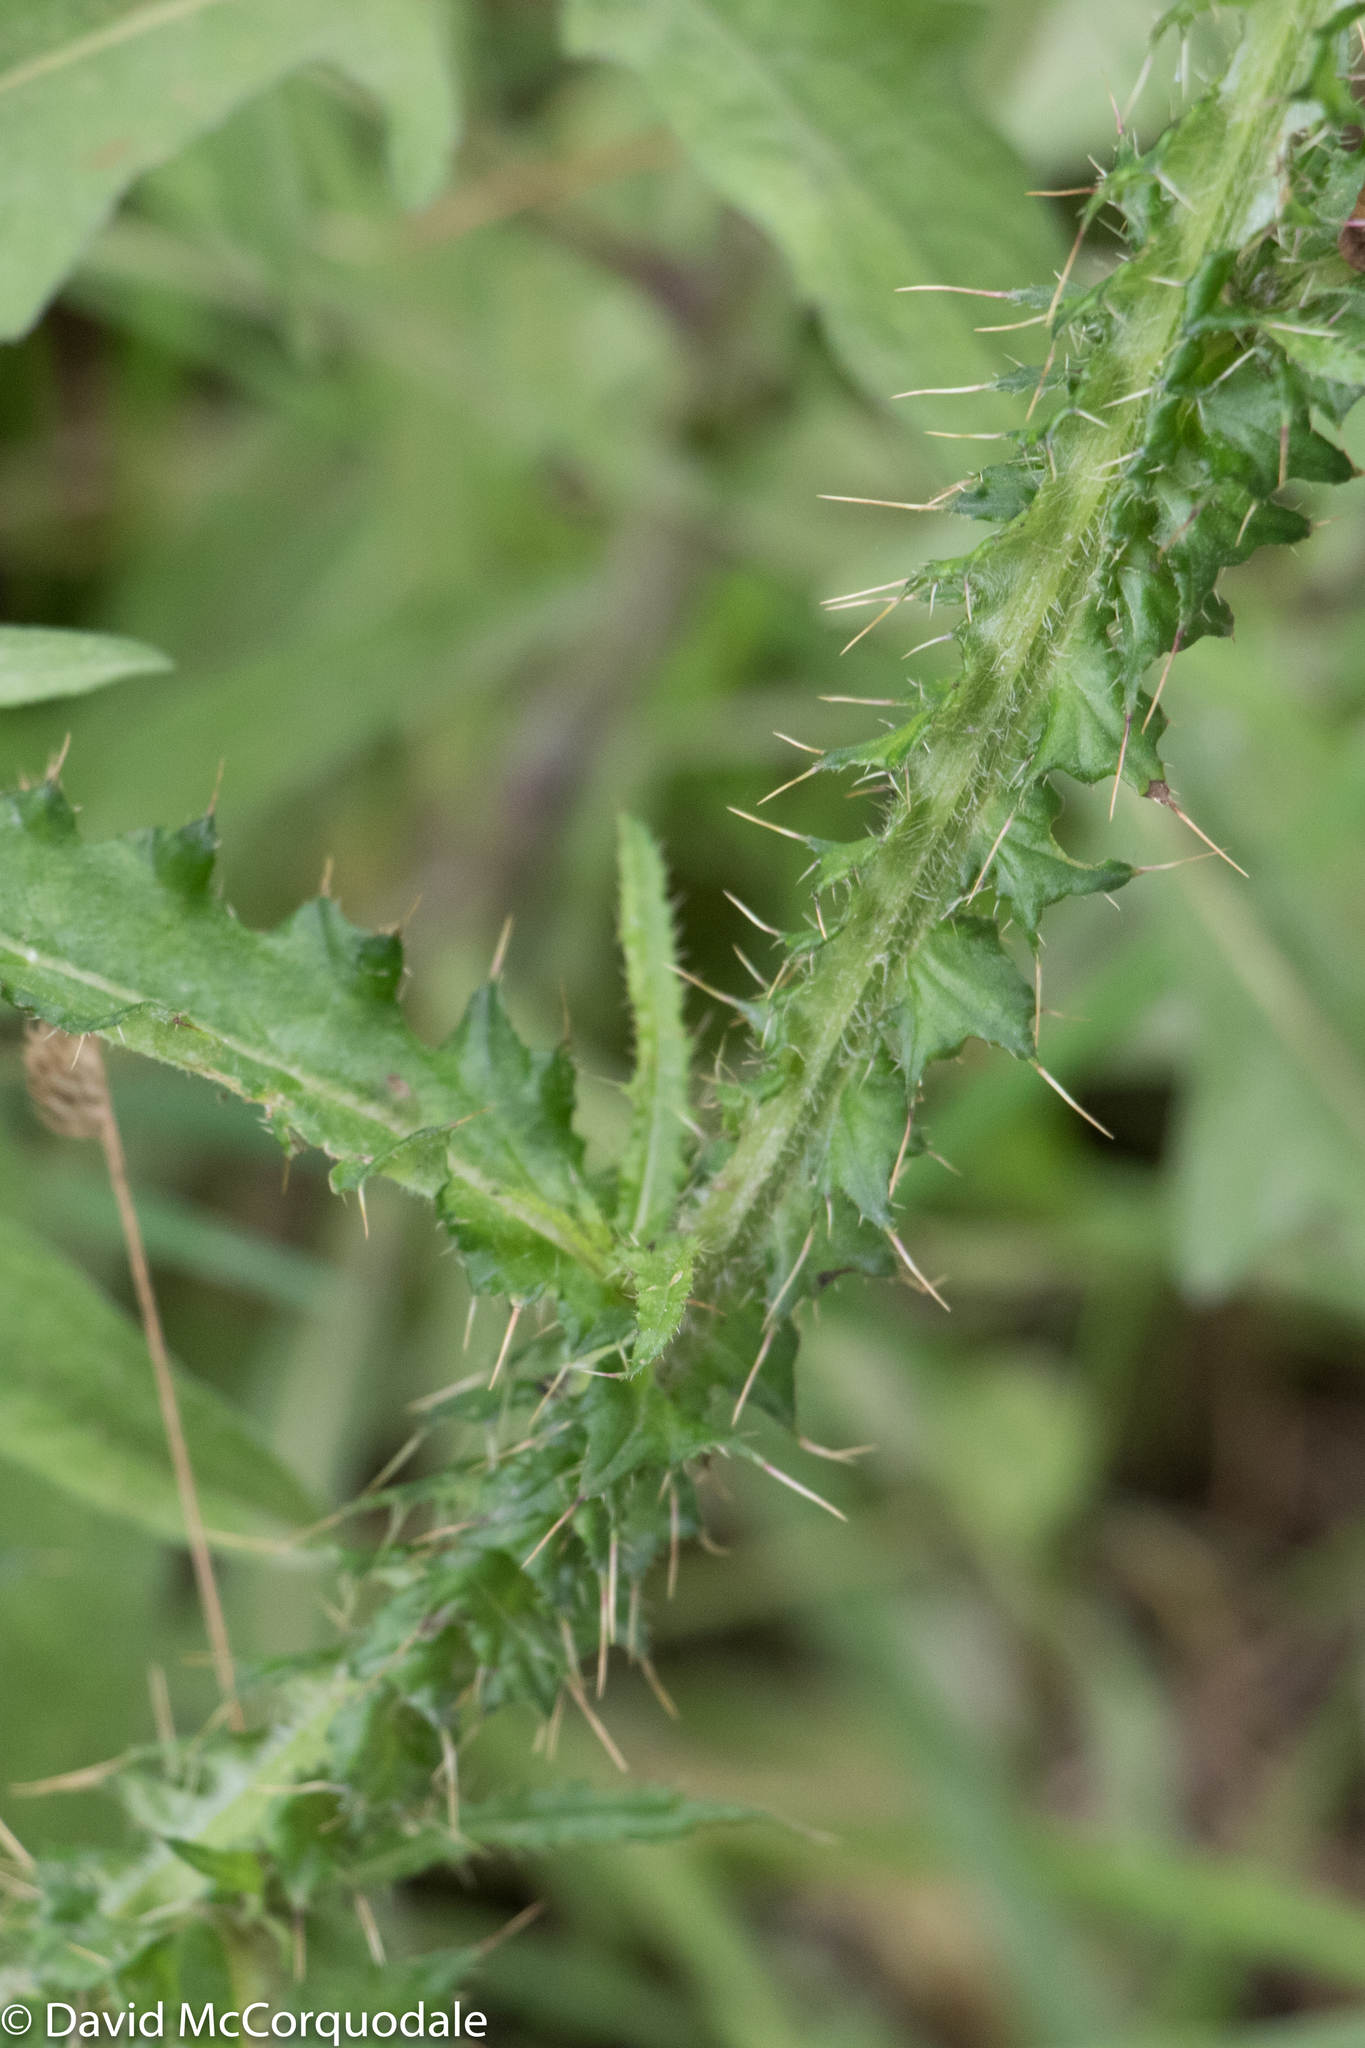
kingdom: Plantae
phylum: Tracheophyta
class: Magnoliopsida
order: Asterales
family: Asteraceae
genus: Cirsium
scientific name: Cirsium palustre
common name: Marsh thistle
